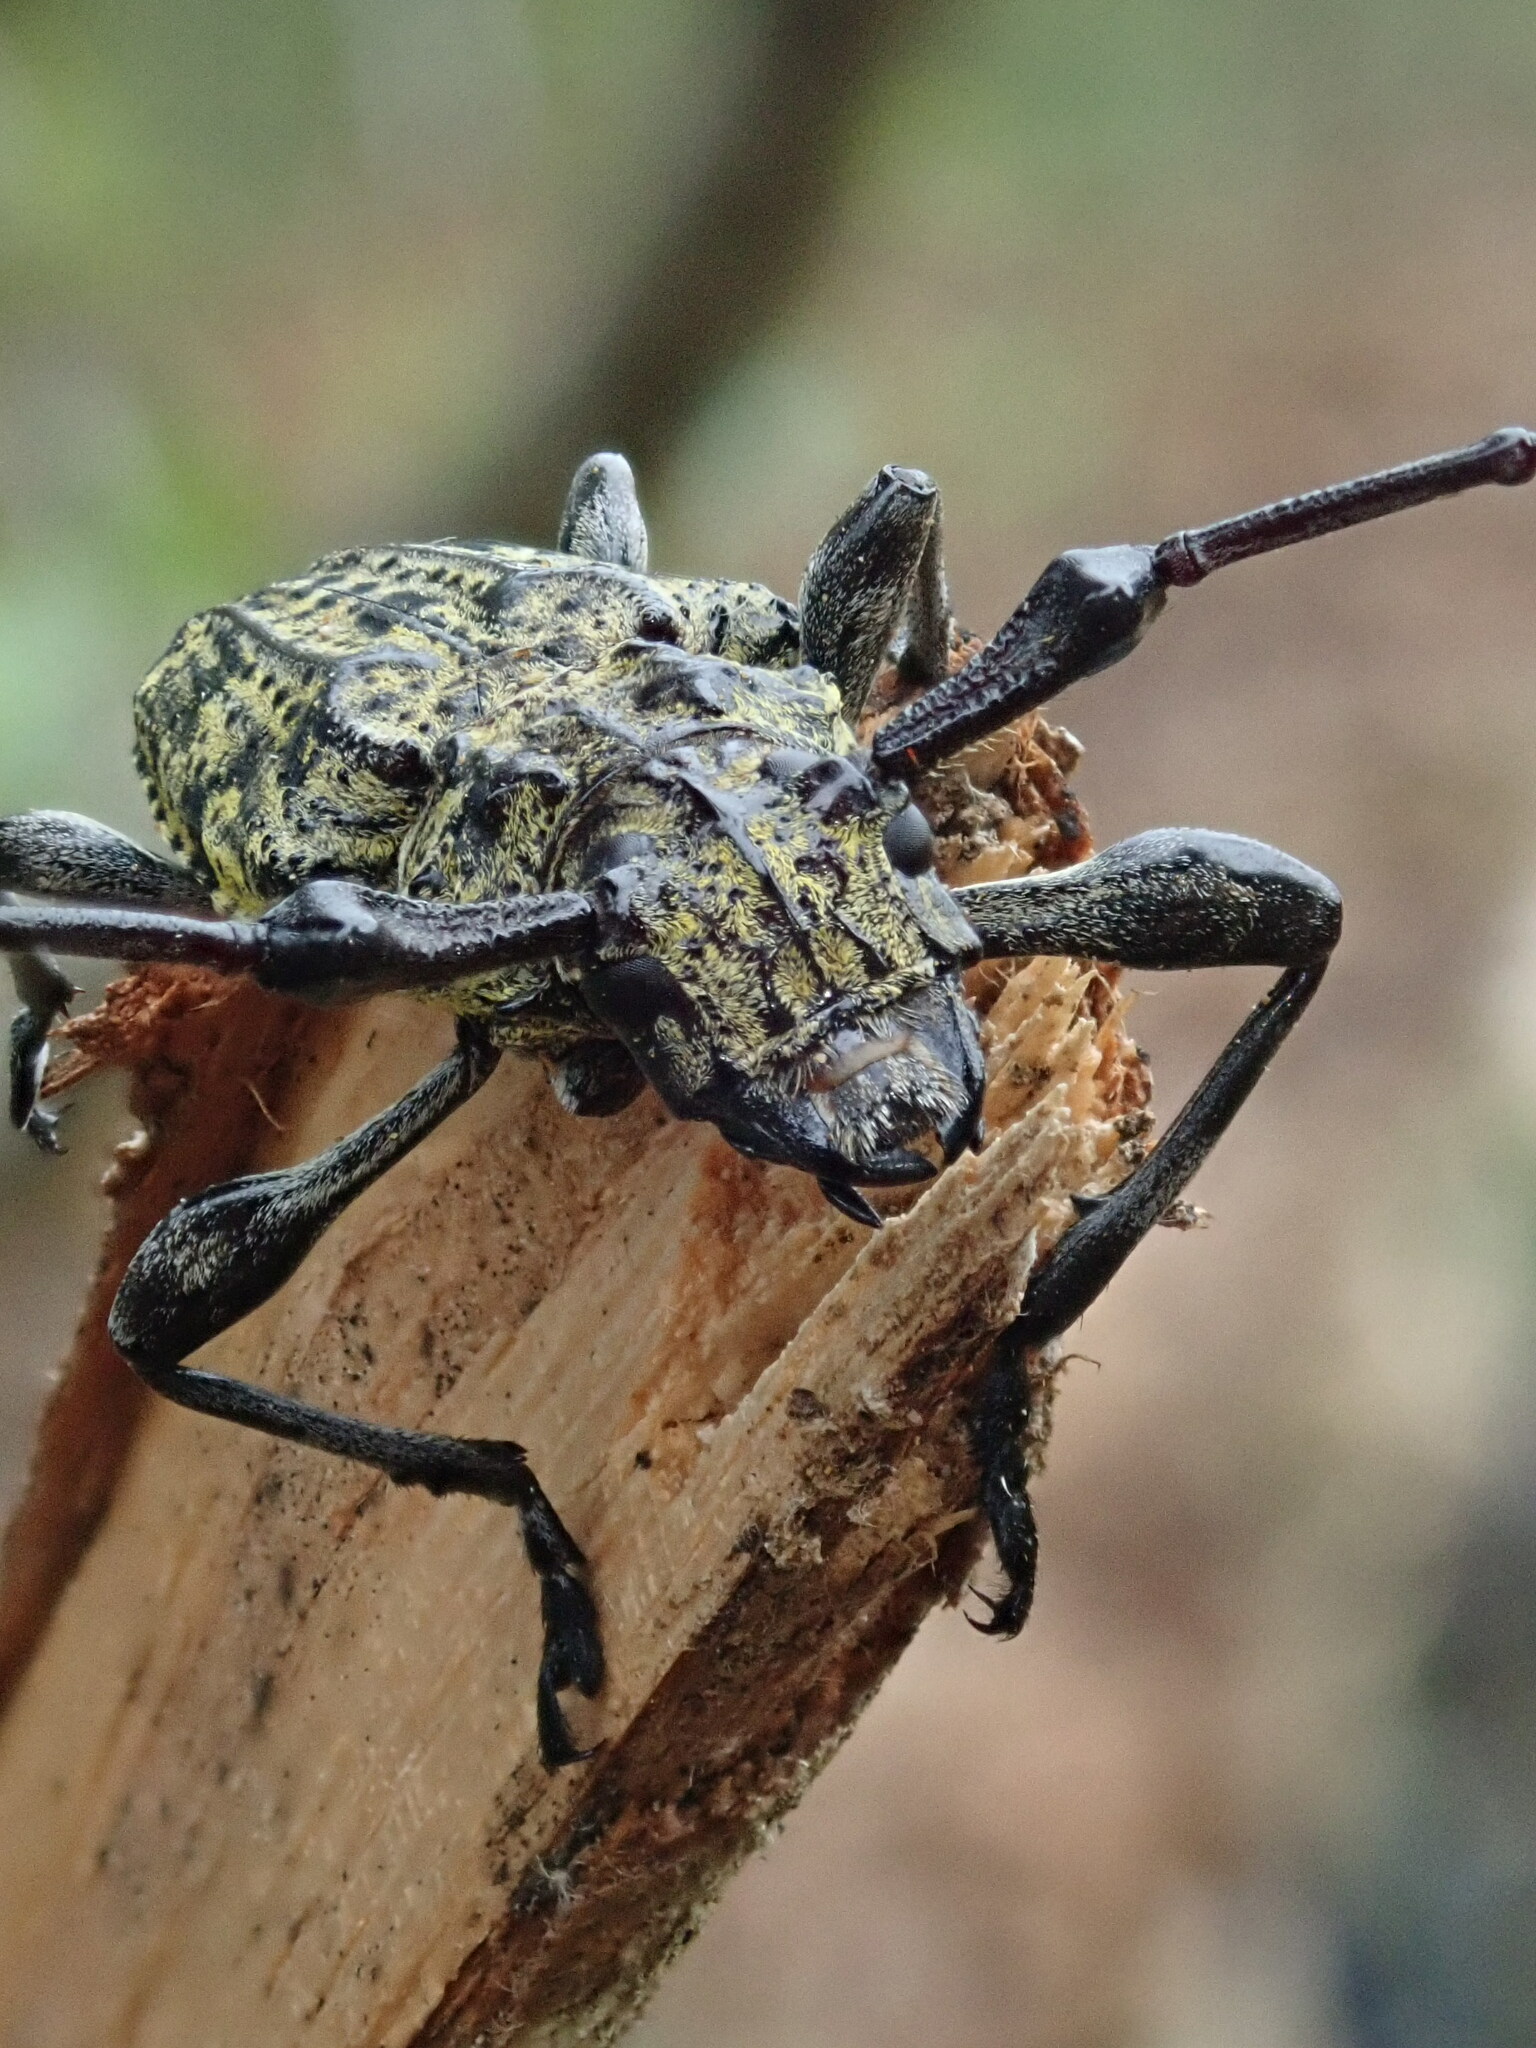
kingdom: Animalia
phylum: Arthropoda
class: Insecta
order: Coleoptera
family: Cerambycidae
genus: Steirastoma
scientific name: Steirastoma breve
